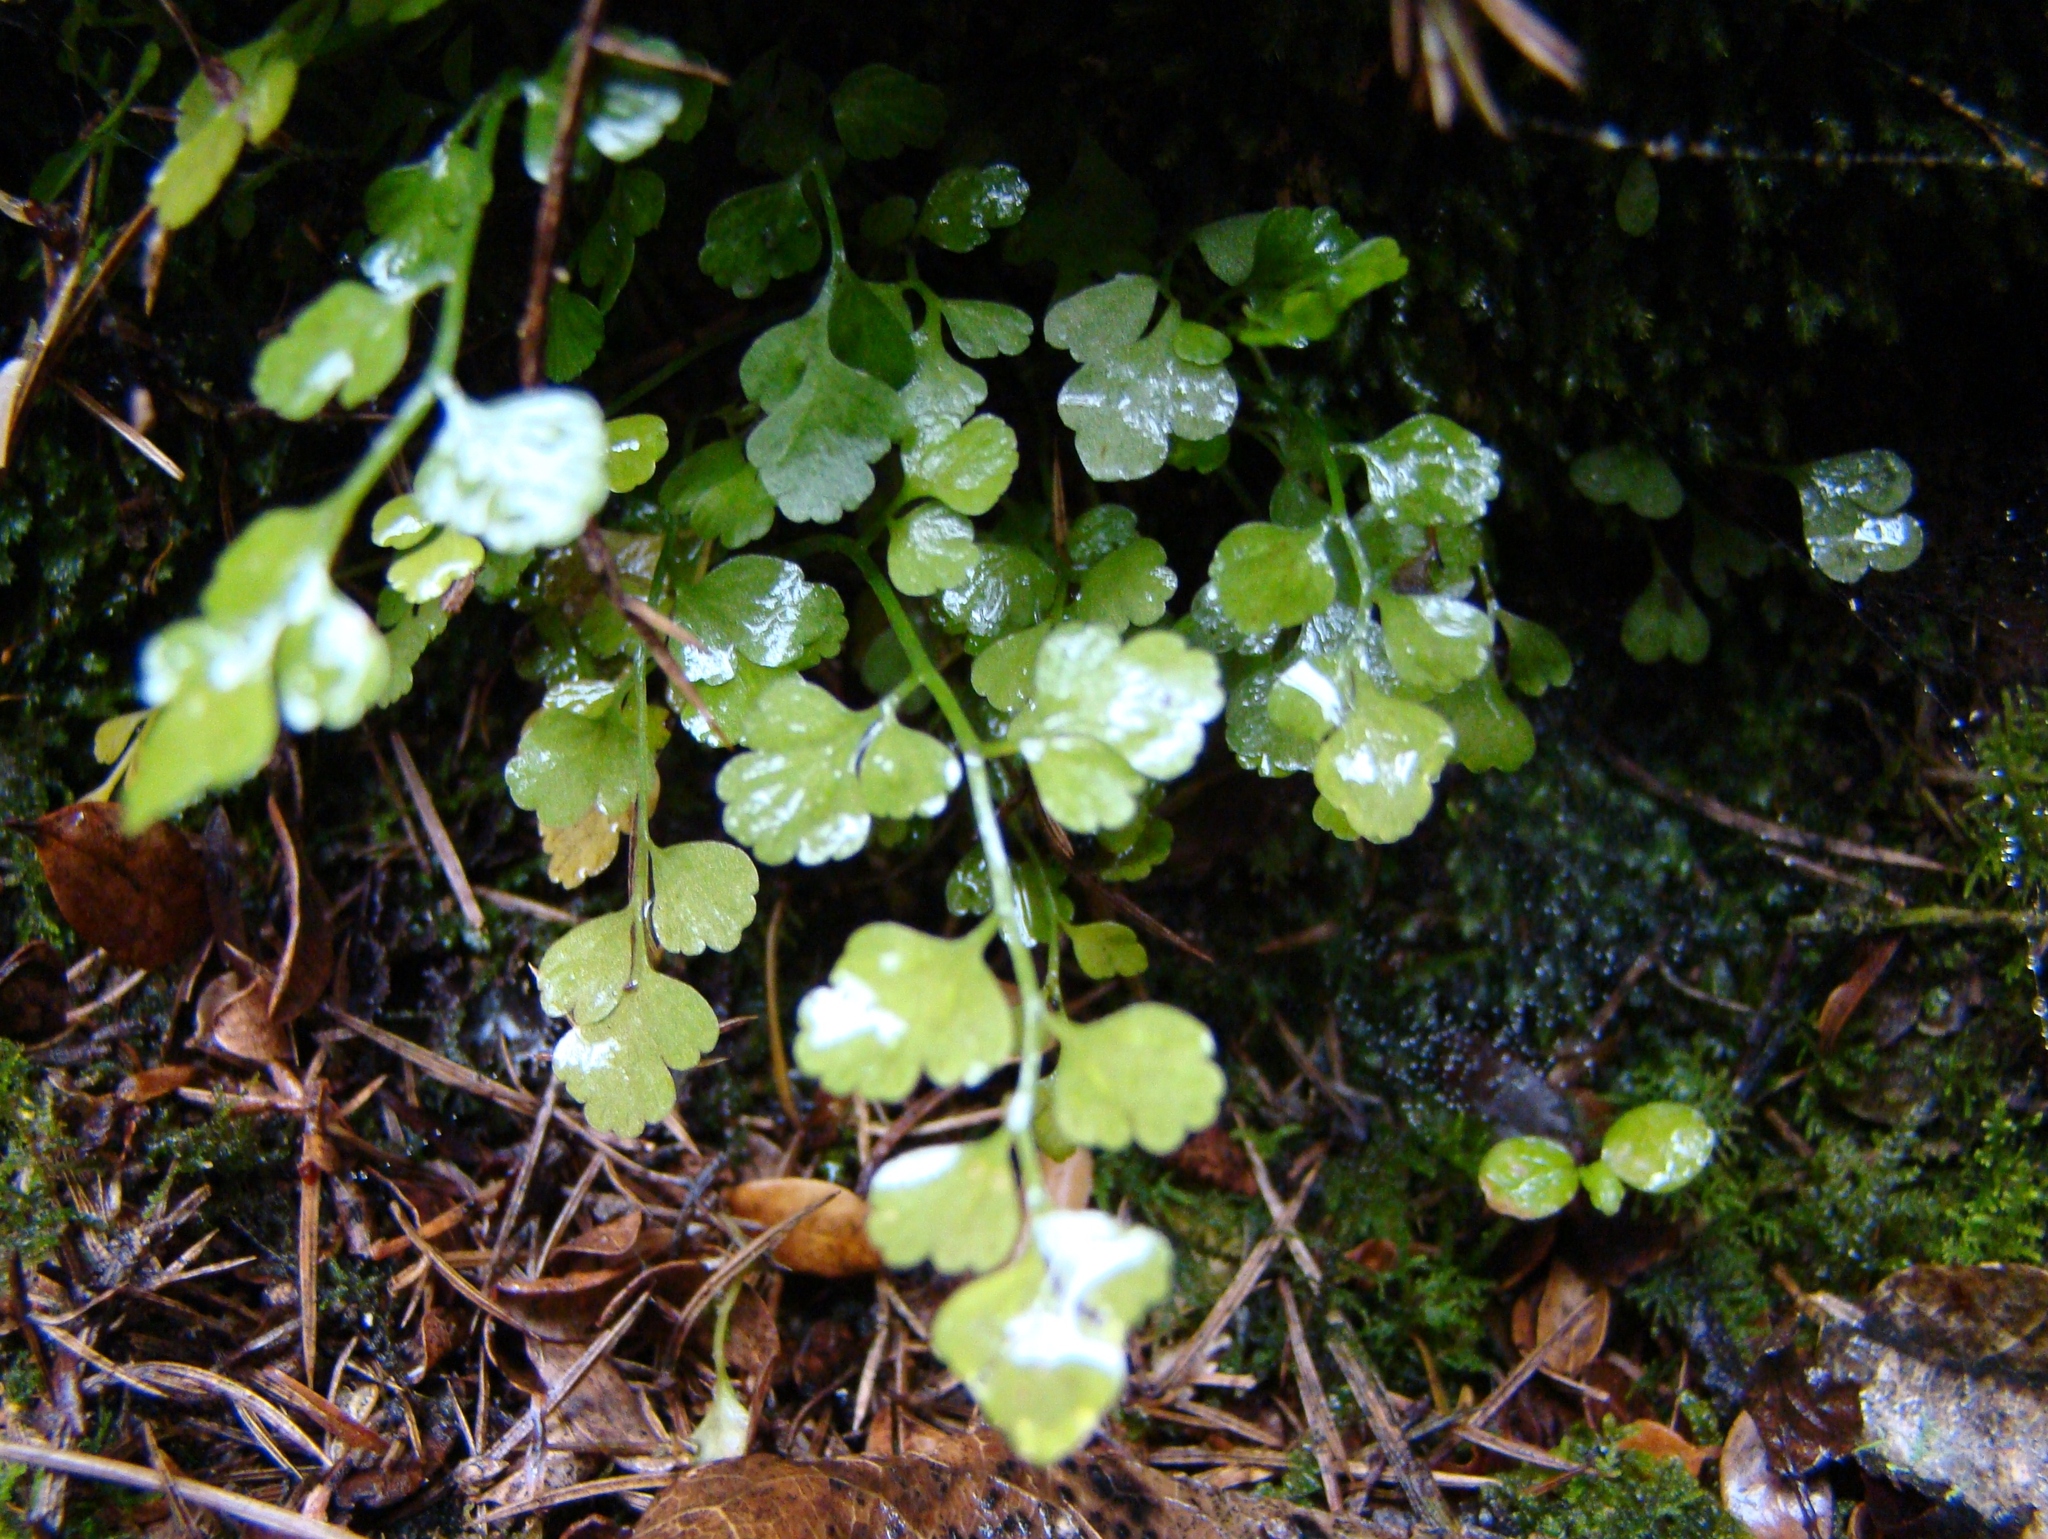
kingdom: Plantae
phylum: Tracheophyta
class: Polypodiopsida
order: Polypodiales
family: Aspleniaceae
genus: Asplenium
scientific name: Asplenium hookerianum
